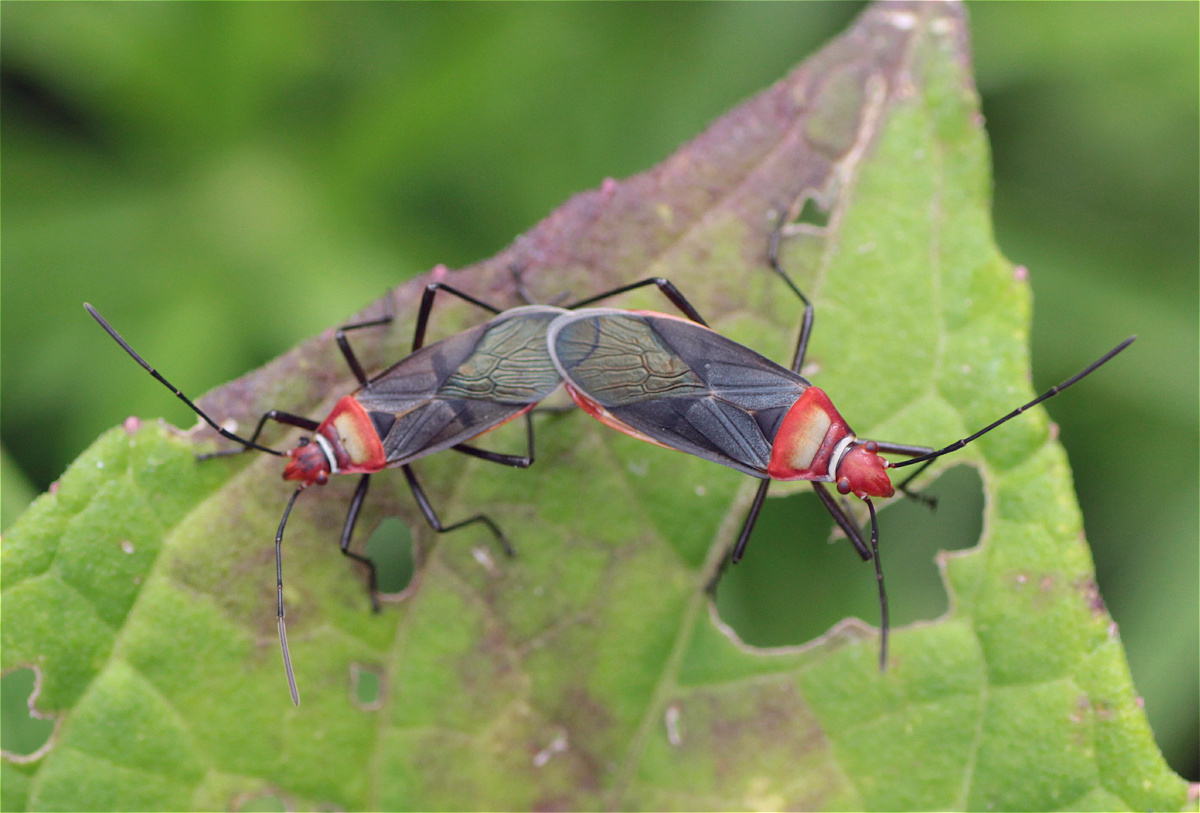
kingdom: Animalia
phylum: Arthropoda
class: Insecta
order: Hemiptera
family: Pyrrhocoridae
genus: Dysdercus
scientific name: Dysdercus collaris
